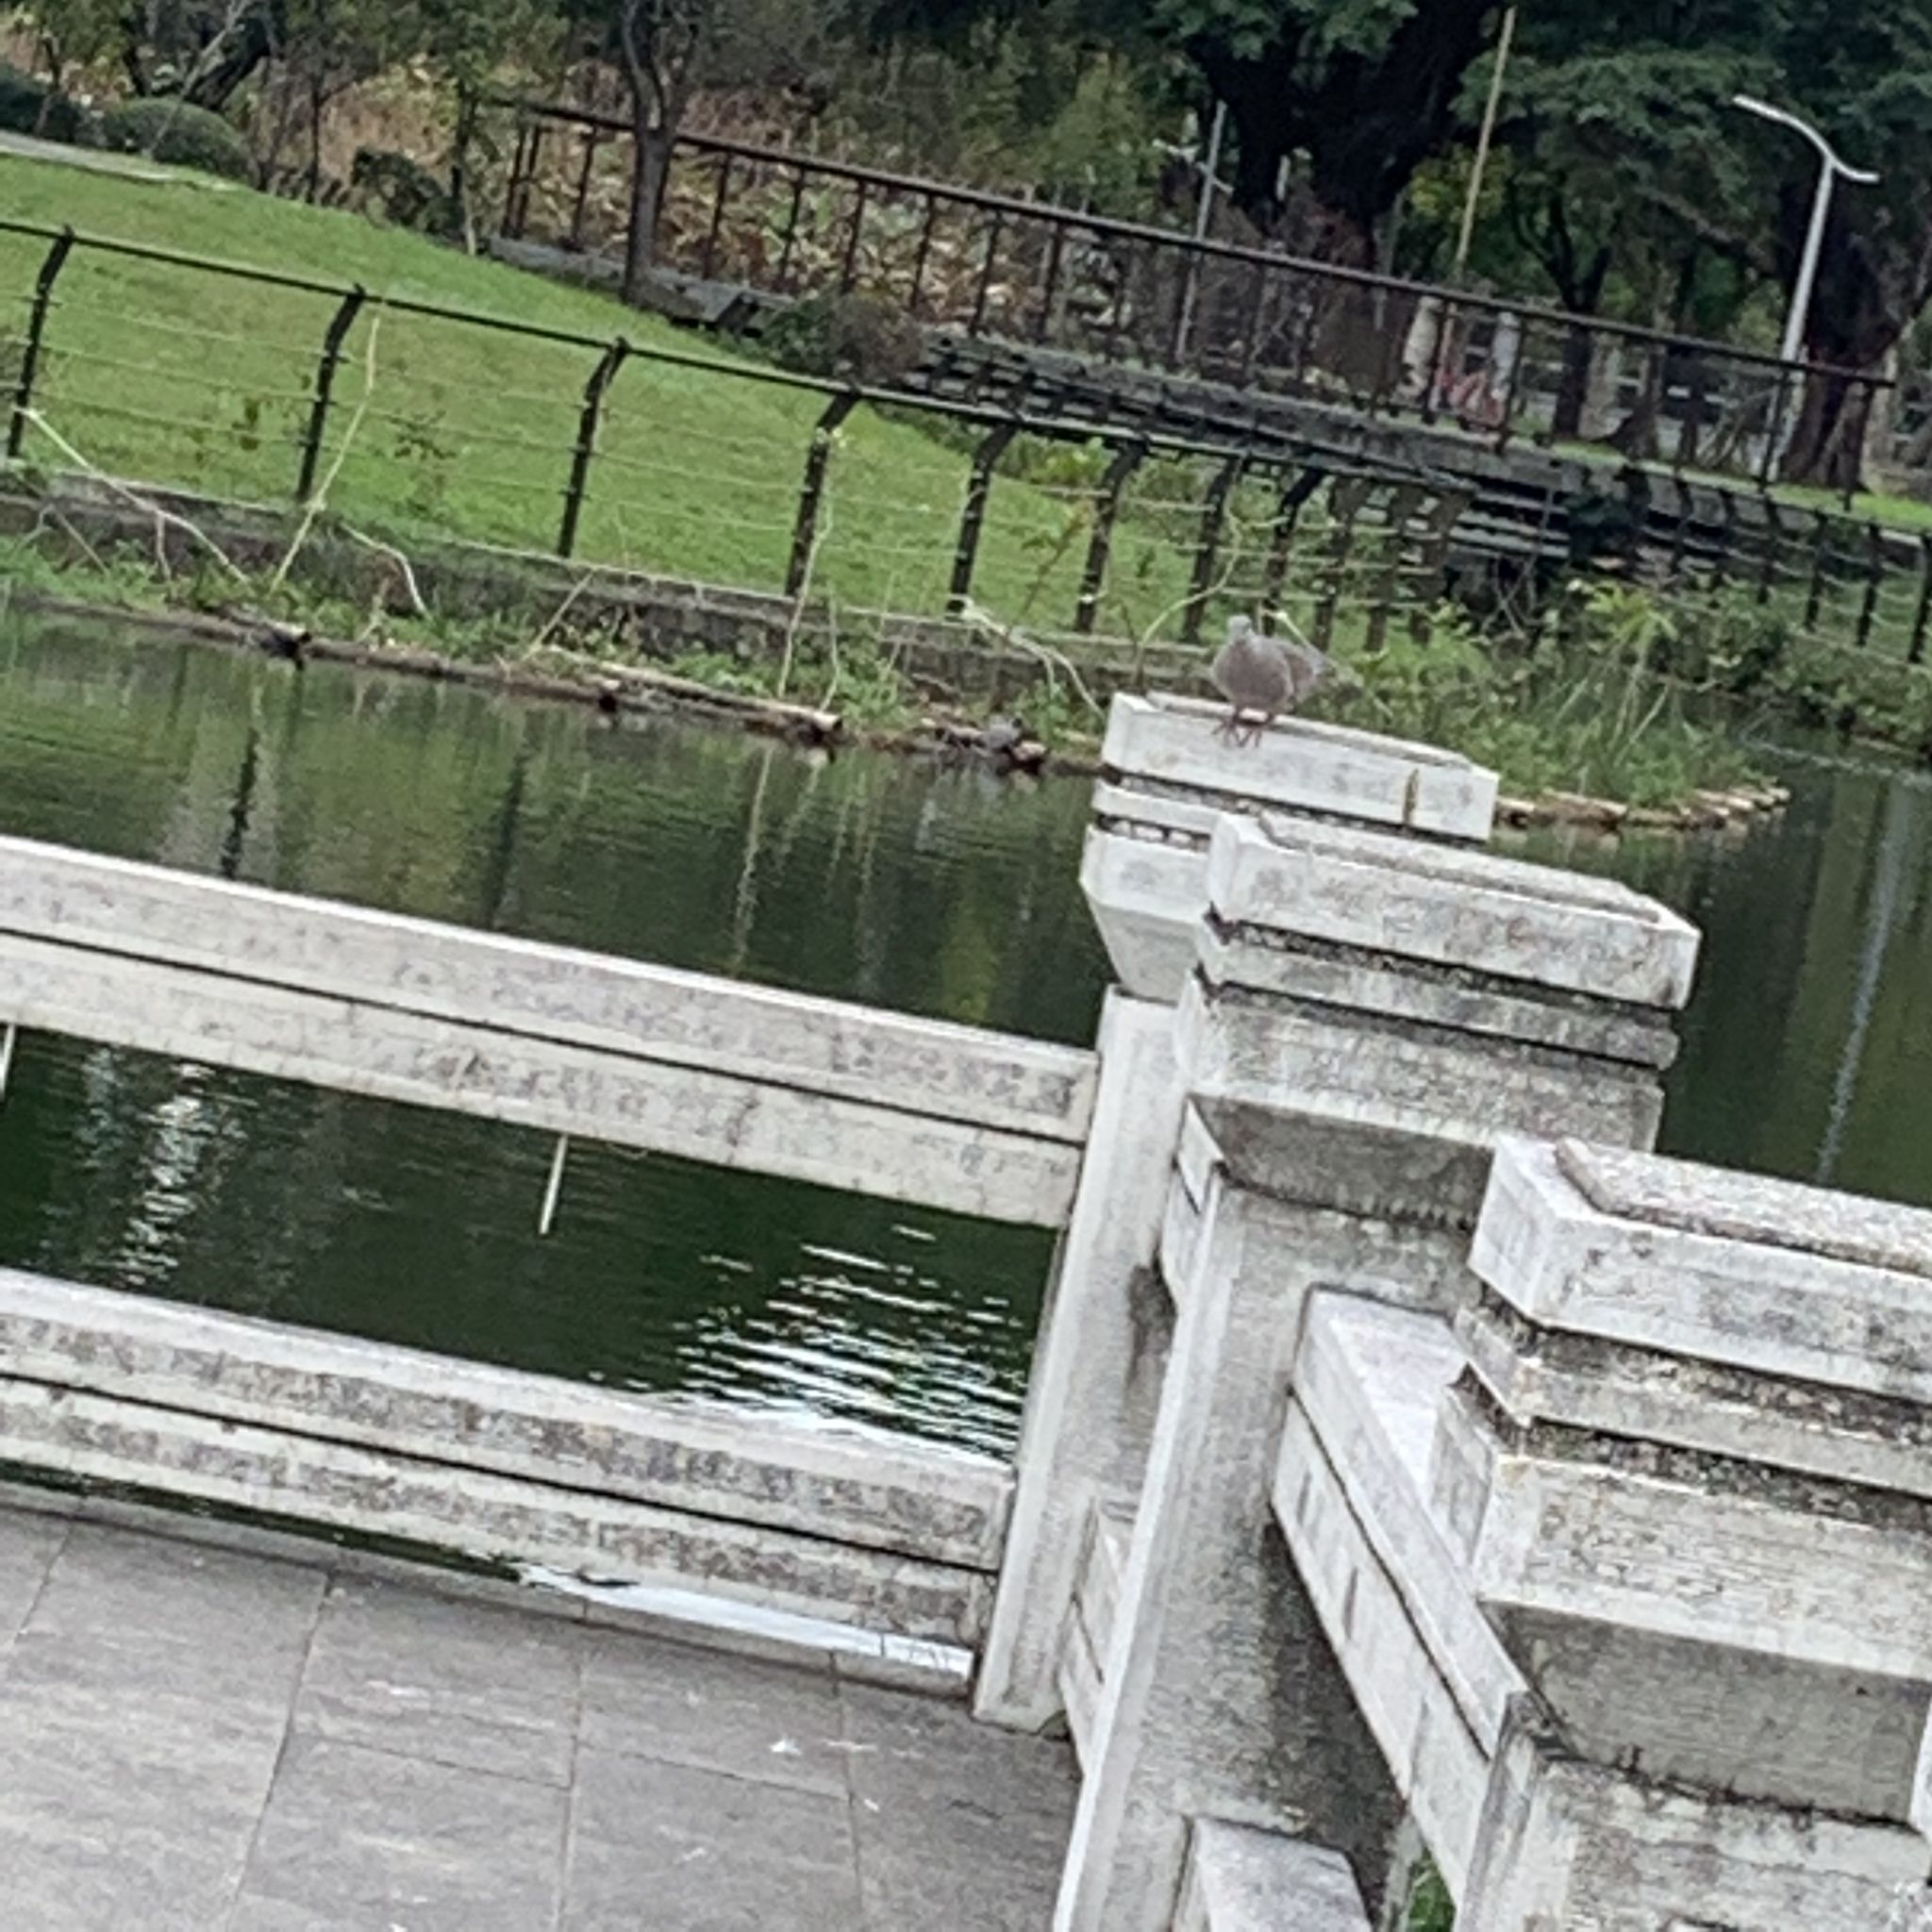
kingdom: Animalia
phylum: Chordata
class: Aves
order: Columbiformes
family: Columbidae
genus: Streptopelia
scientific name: Streptopelia orientalis
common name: Oriental turtle dove
